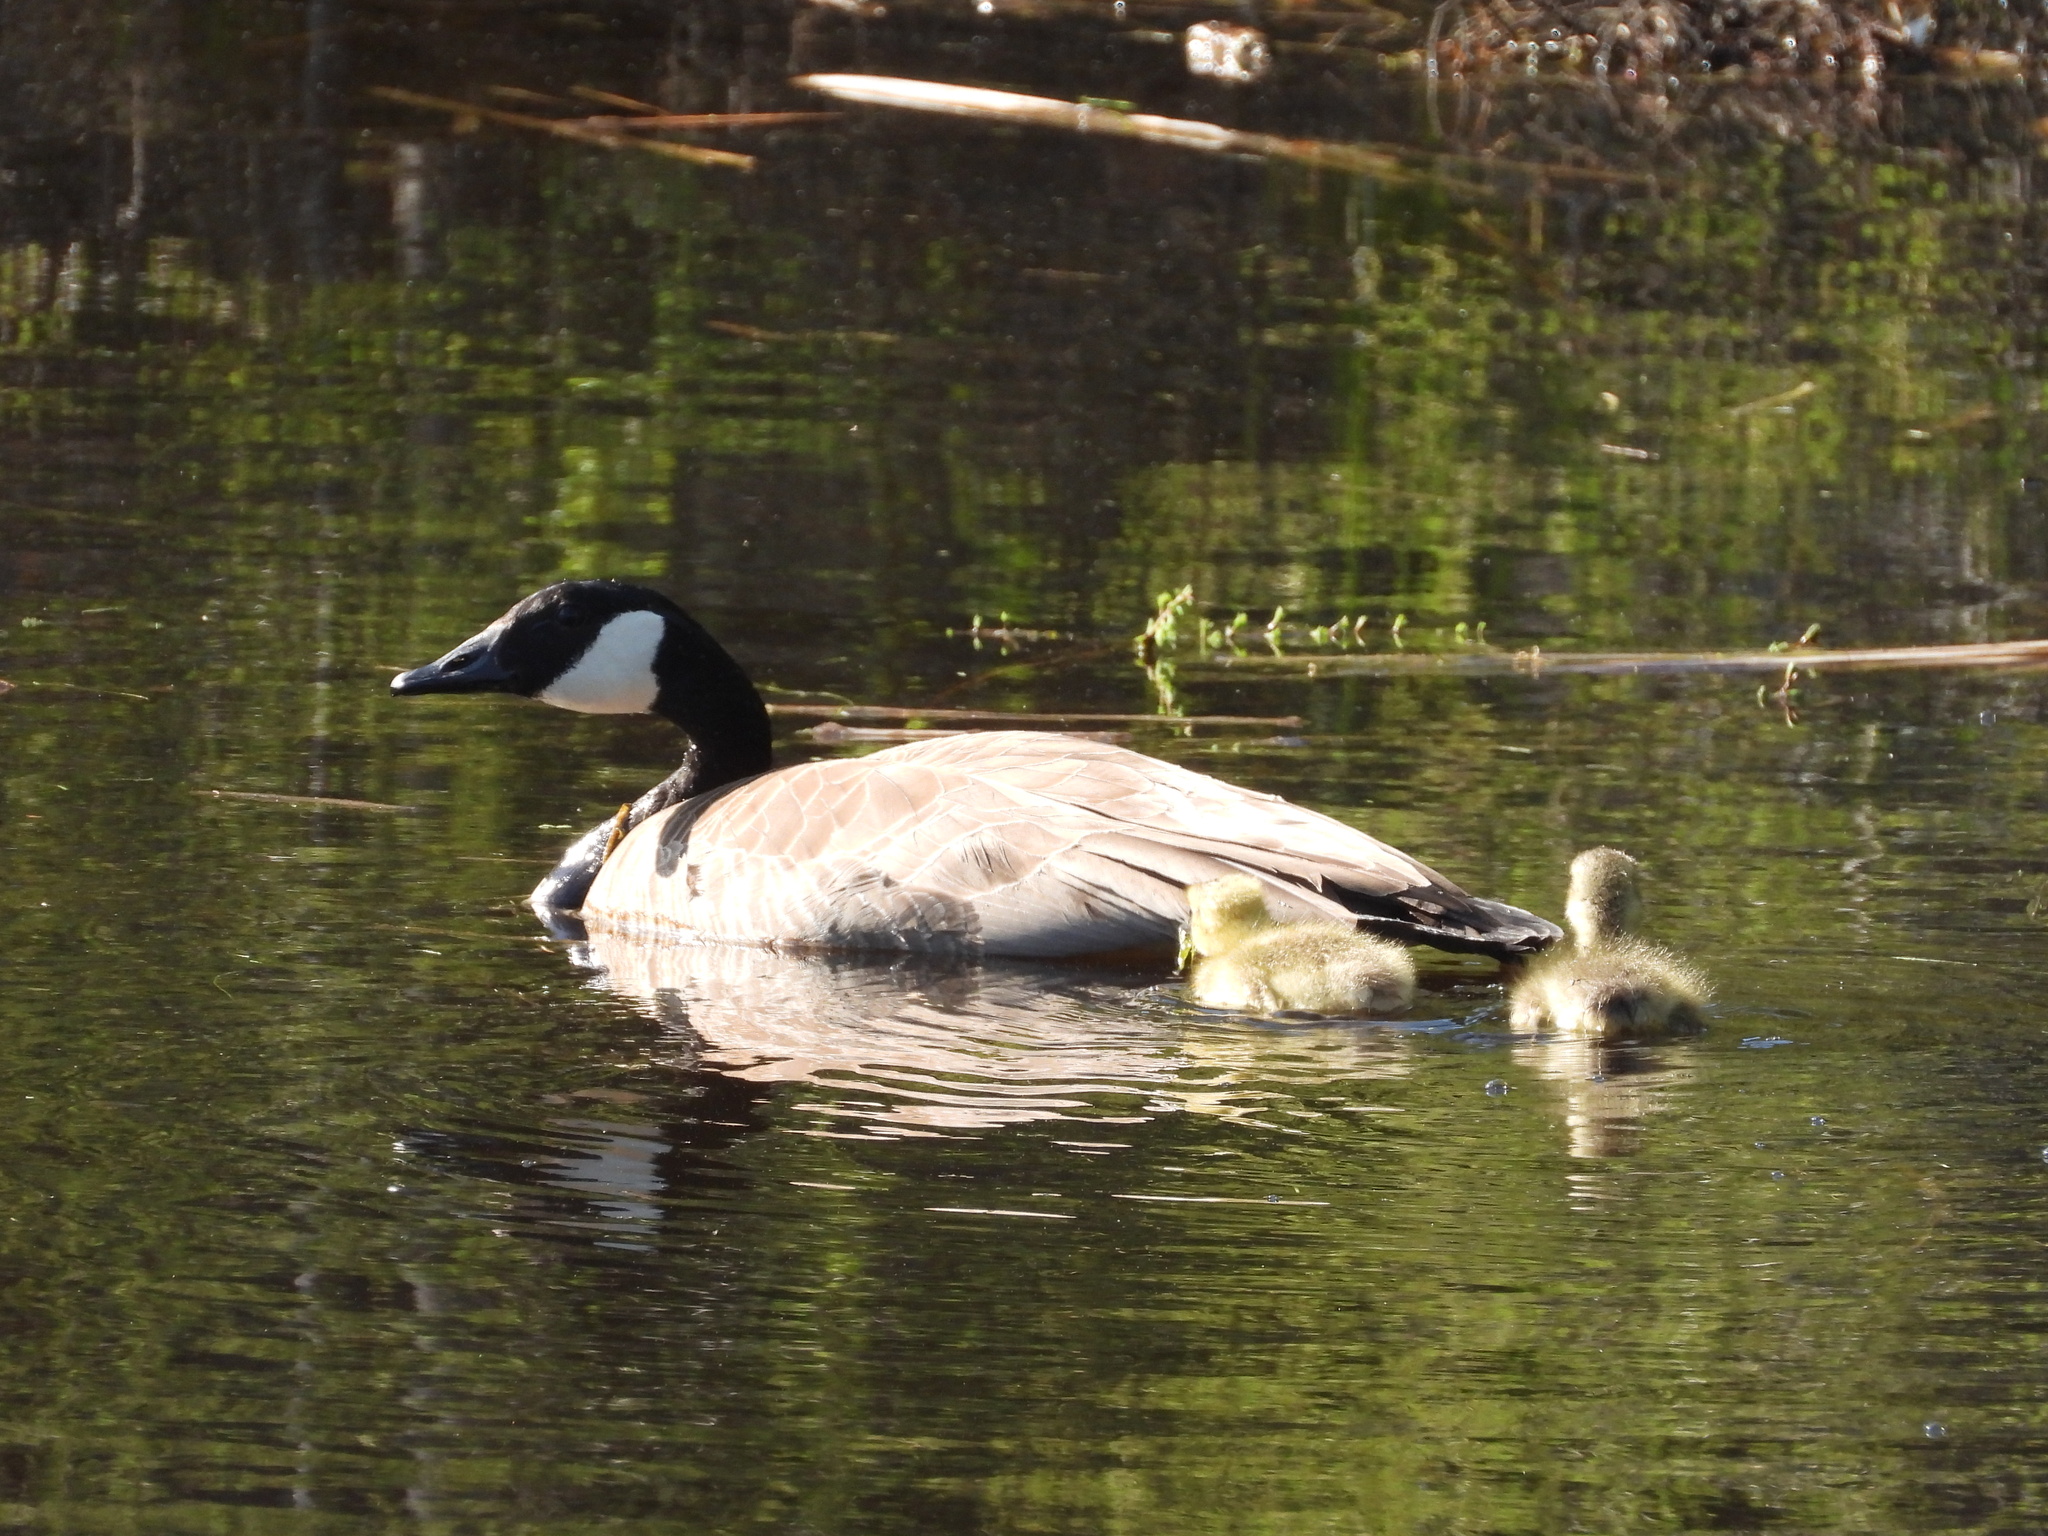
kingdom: Animalia
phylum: Chordata
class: Aves
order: Anseriformes
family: Anatidae
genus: Branta
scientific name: Branta canadensis
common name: Canada goose
